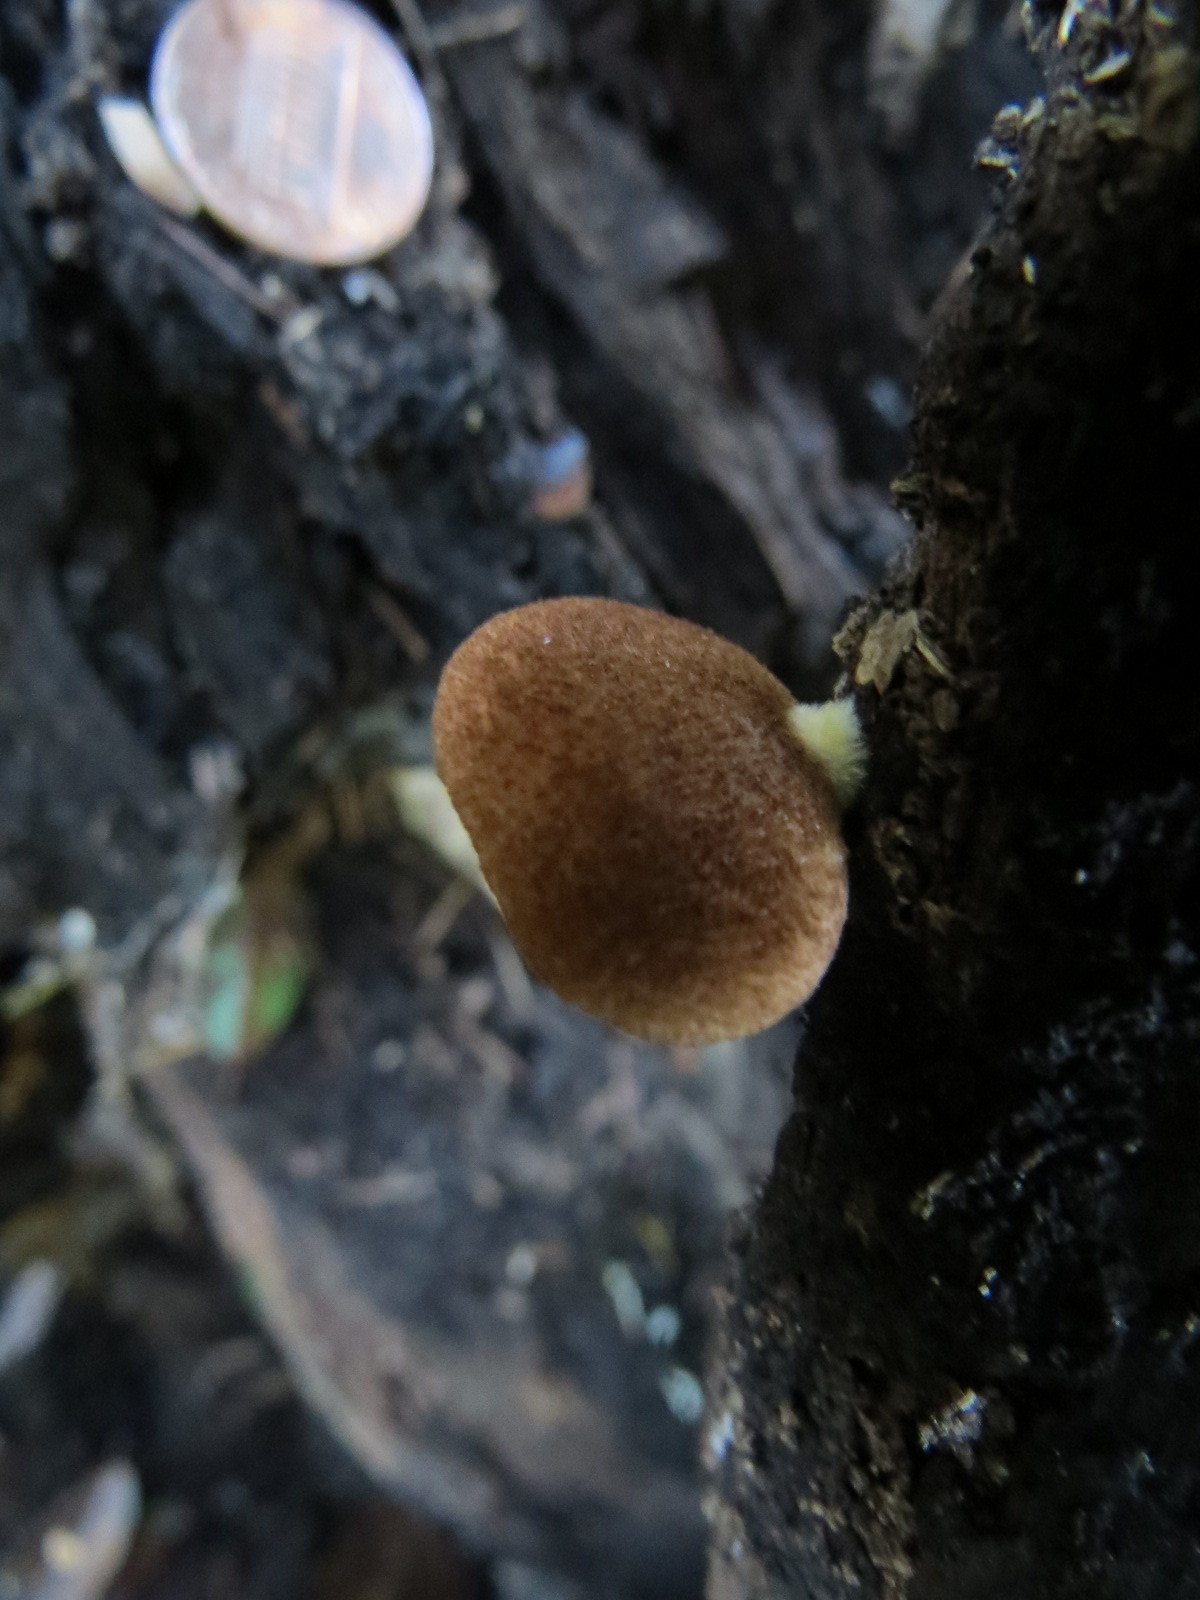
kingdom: Fungi
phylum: Basidiomycota
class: Agaricomycetes
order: Agaricales
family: Crepidotaceae
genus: Crepidotus
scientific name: Crepidotus crocophyllus
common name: Saffron oysterling
